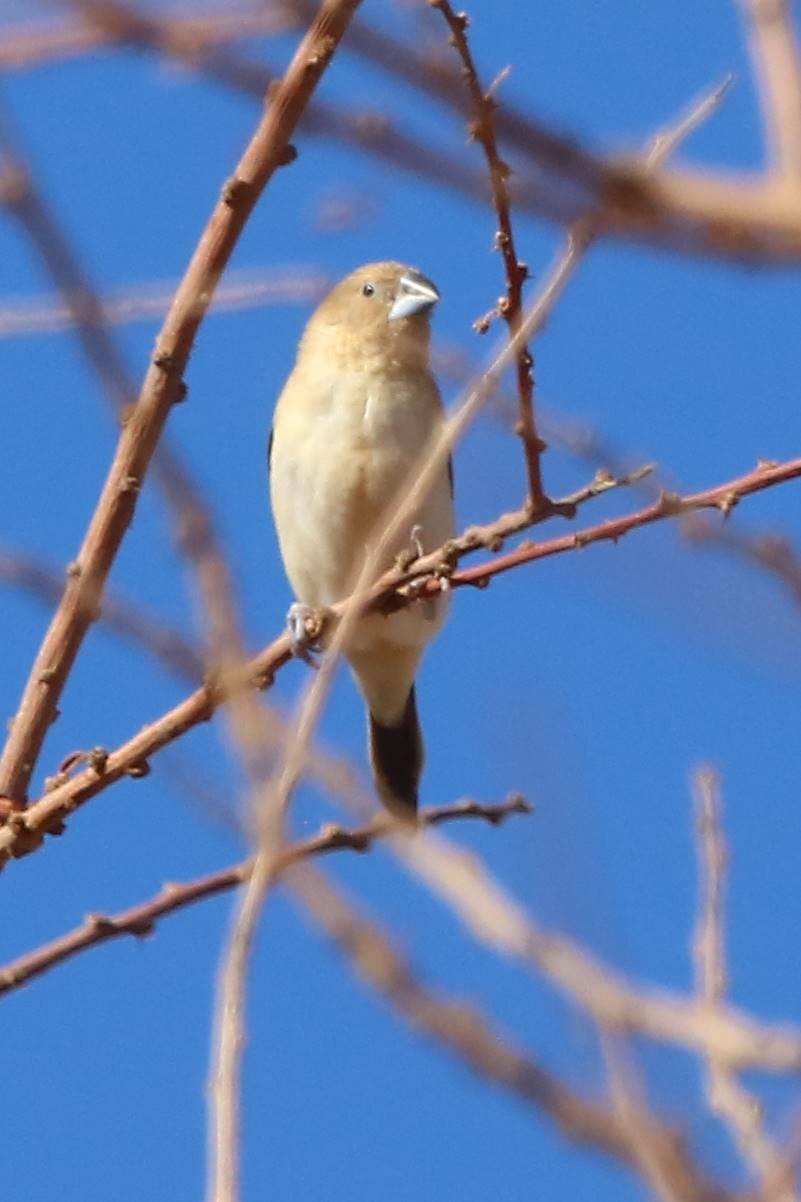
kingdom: Animalia
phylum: Chordata
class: Aves
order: Passeriformes
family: Estrildidae
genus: Euodice
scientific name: Euodice cantans
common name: African silverbill
